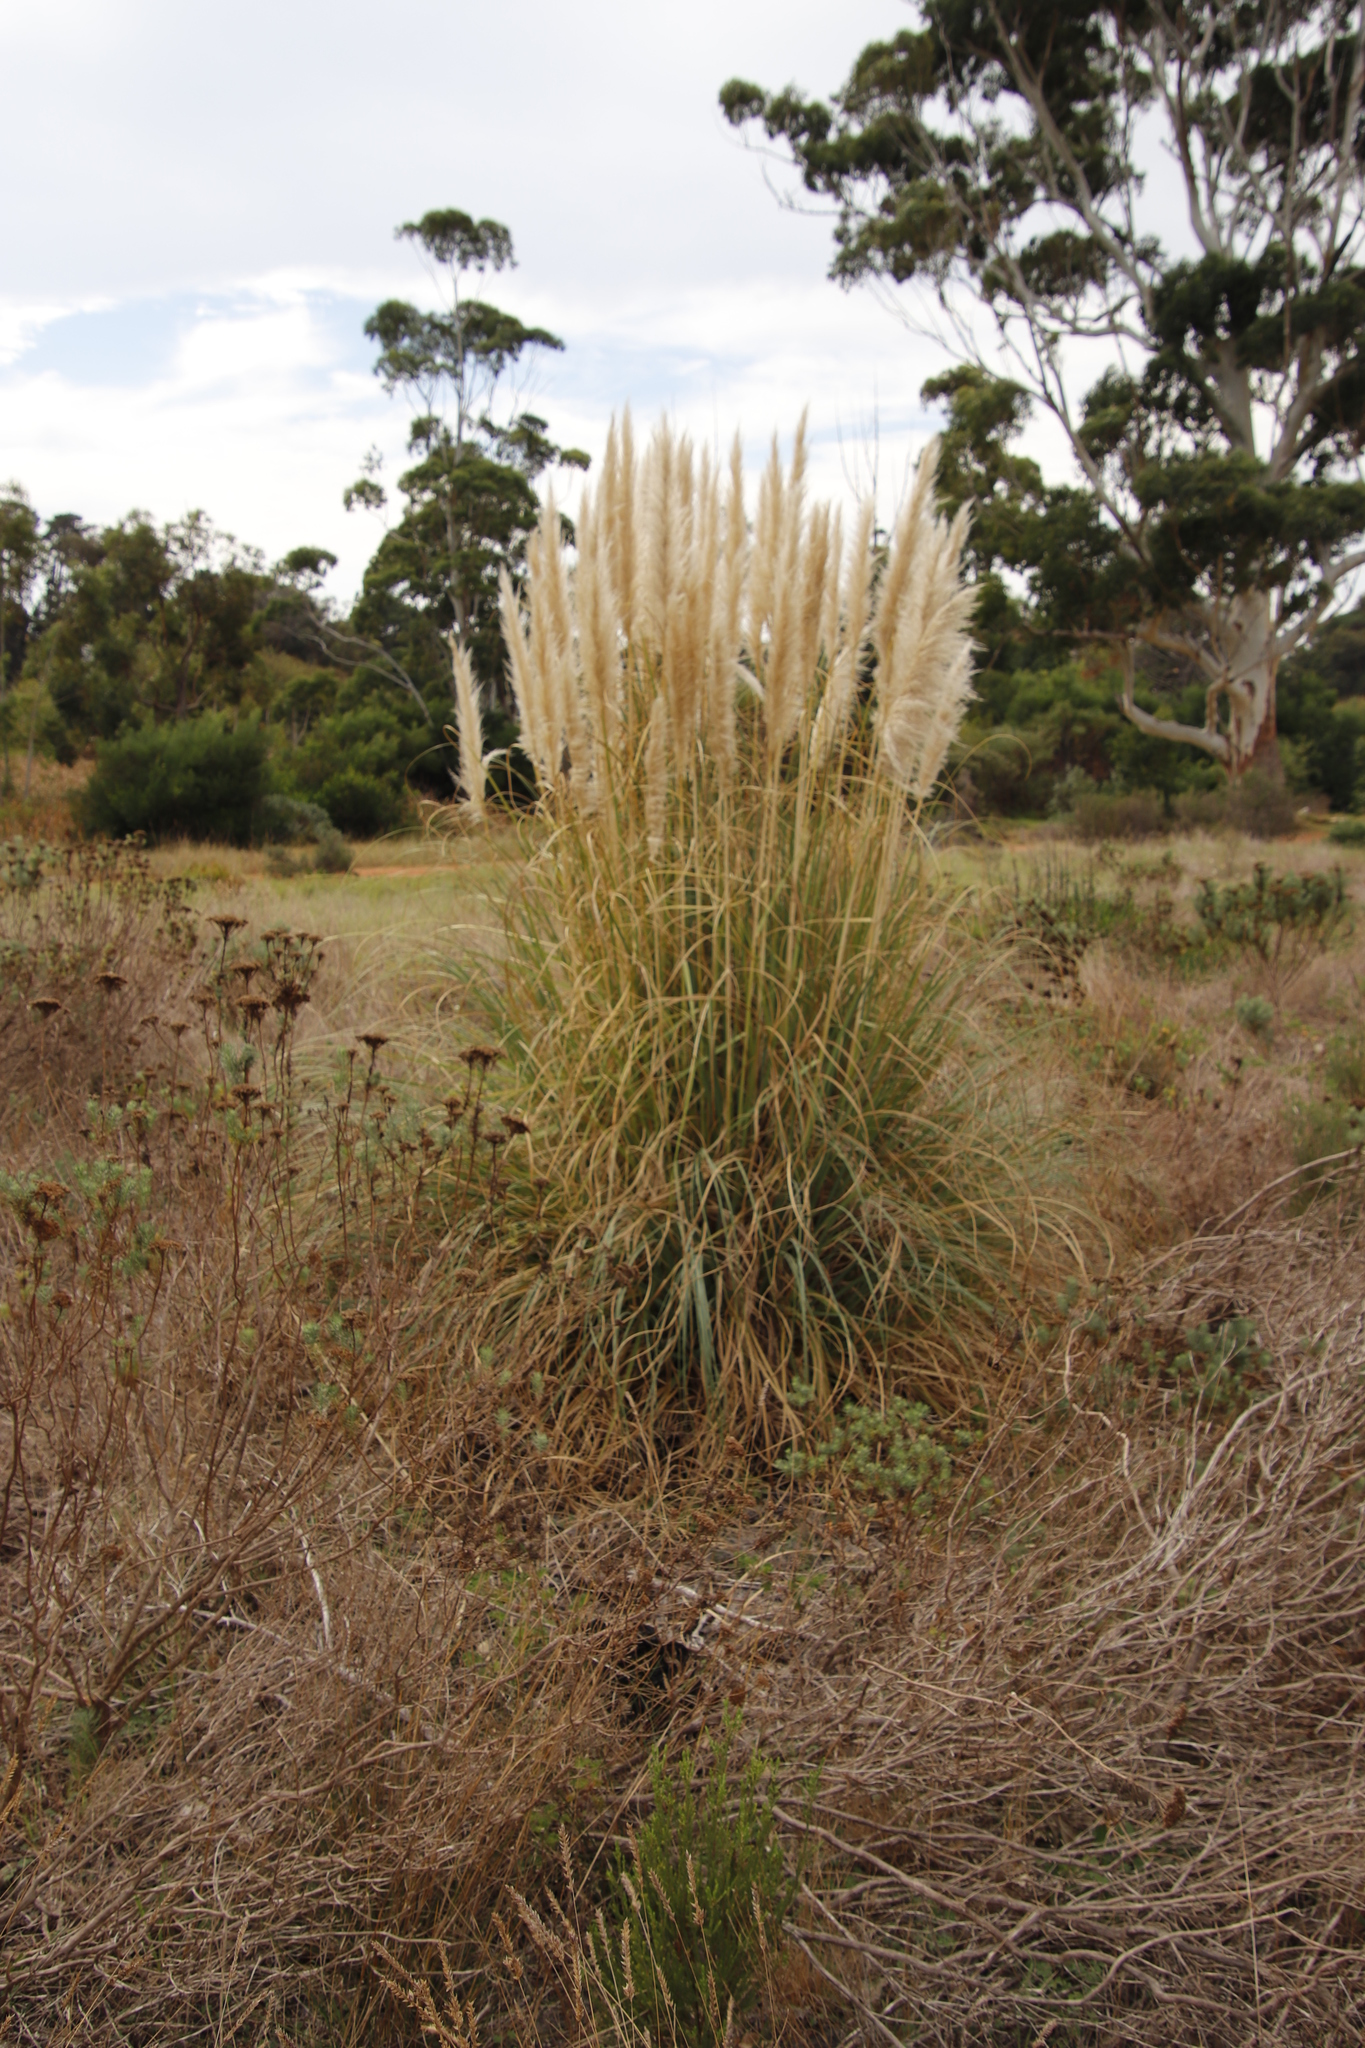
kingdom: Plantae
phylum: Tracheophyta
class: Liliopsida
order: Poales
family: Poaceae
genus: Cortaderia
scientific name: Cortaderia selloana
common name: Uruguayan pampas grass
